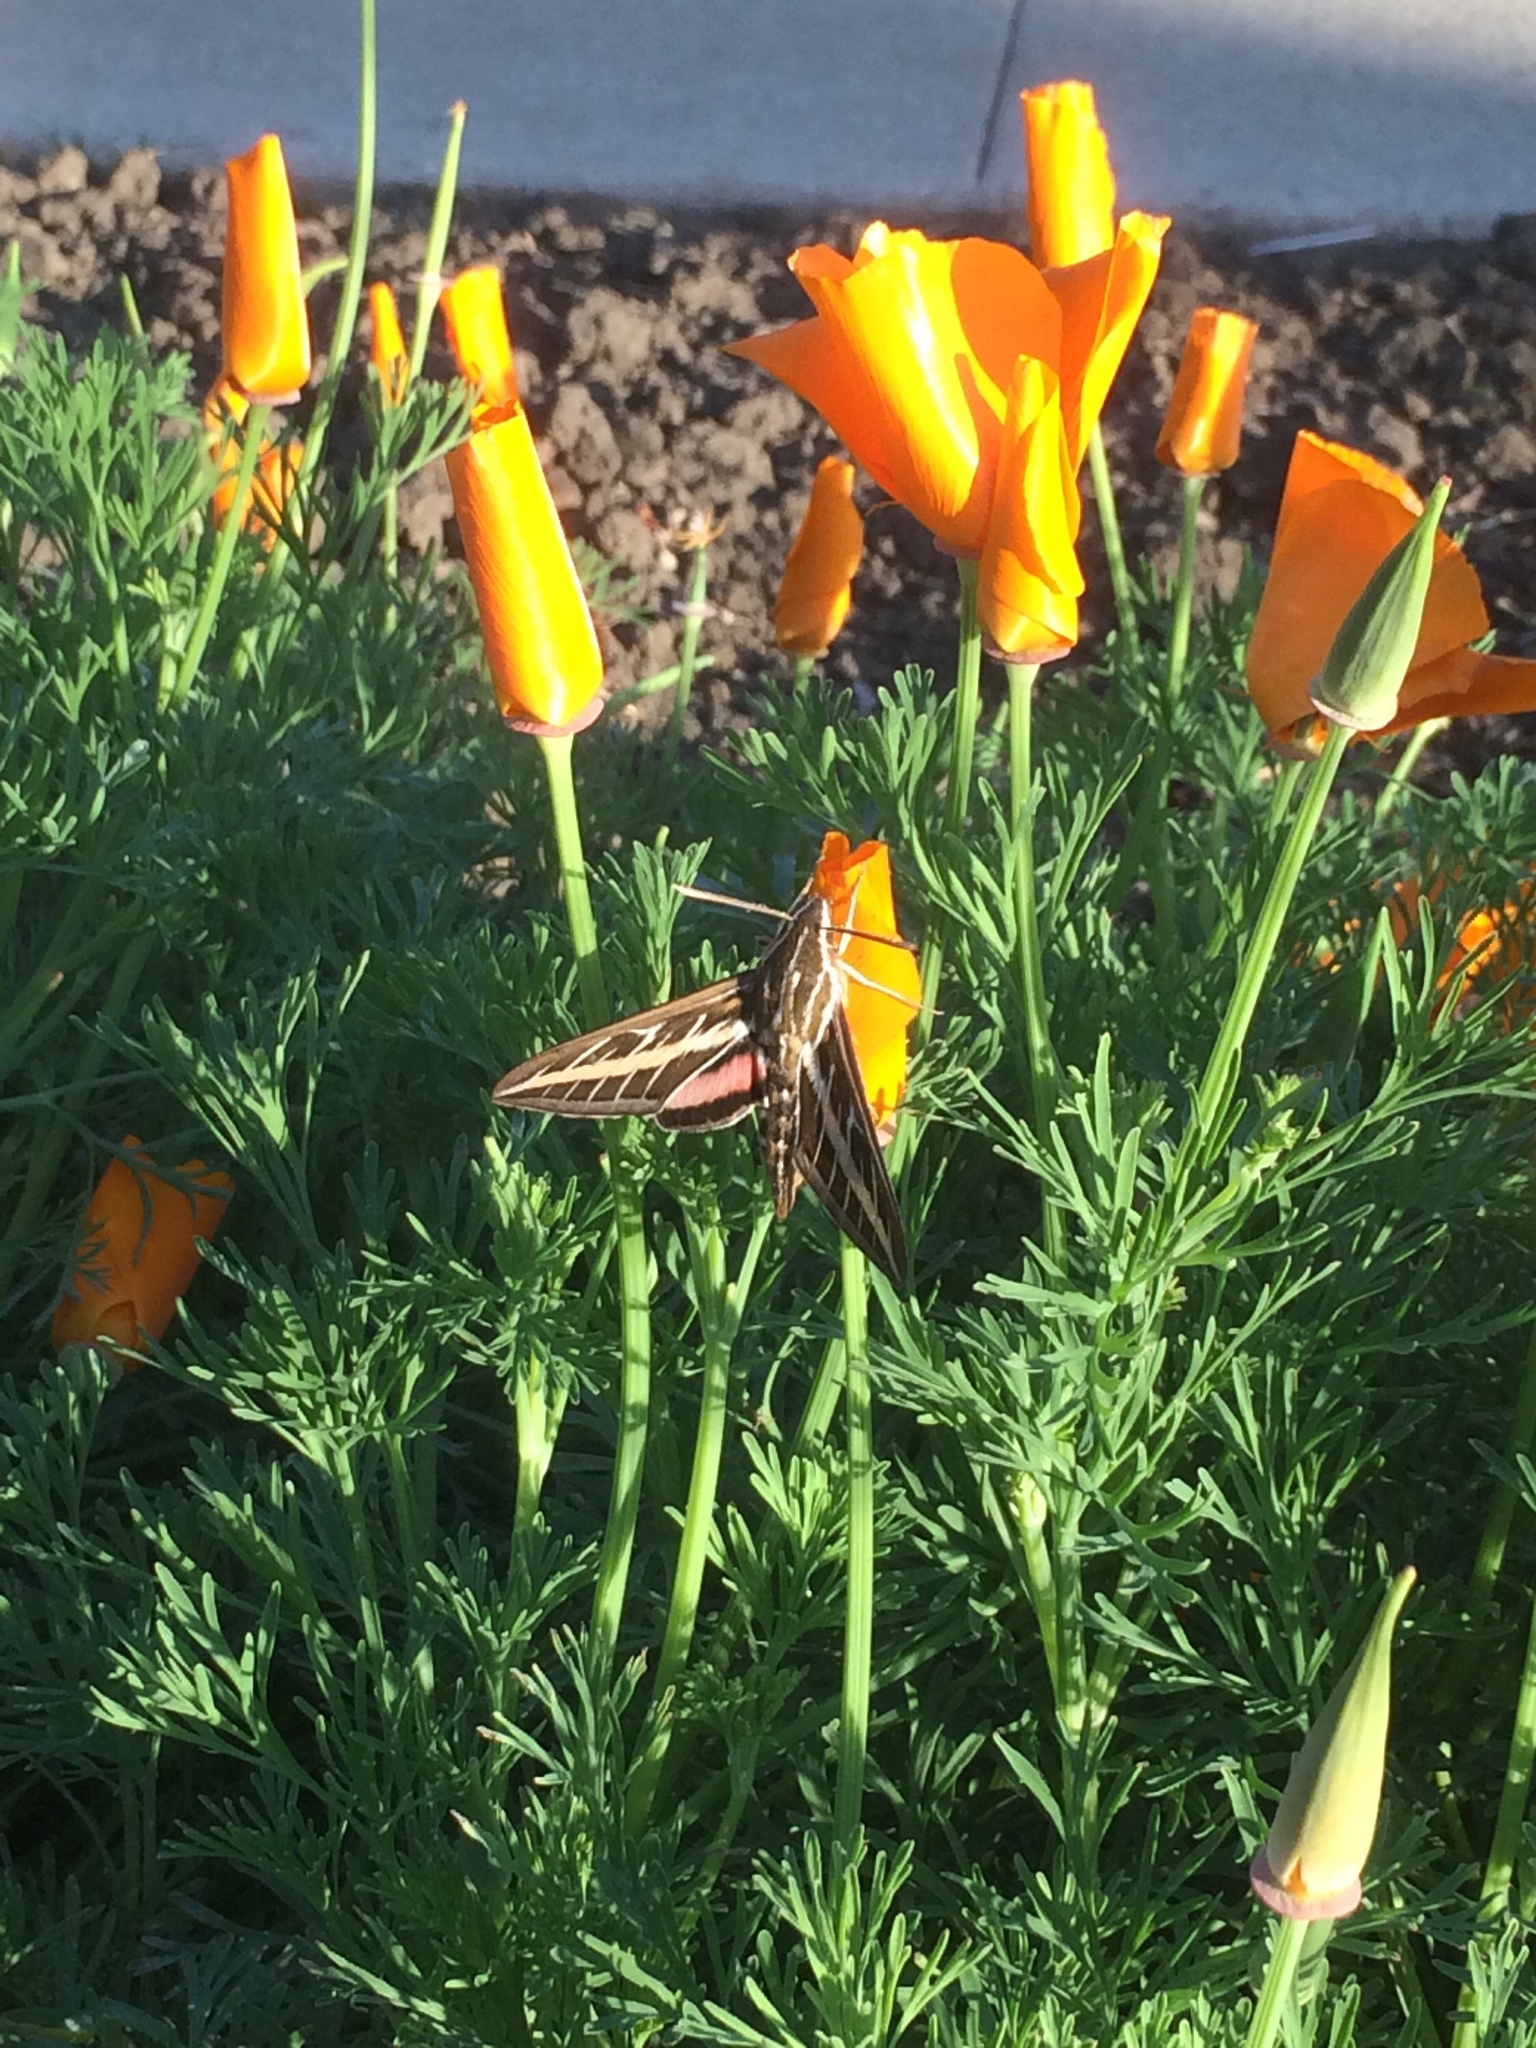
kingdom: Animalia
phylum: Arthropoda
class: Insecta
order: Lepidoptera
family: Sphingidae
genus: Hyles
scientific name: Hyles lineata
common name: White-lined sphinx
